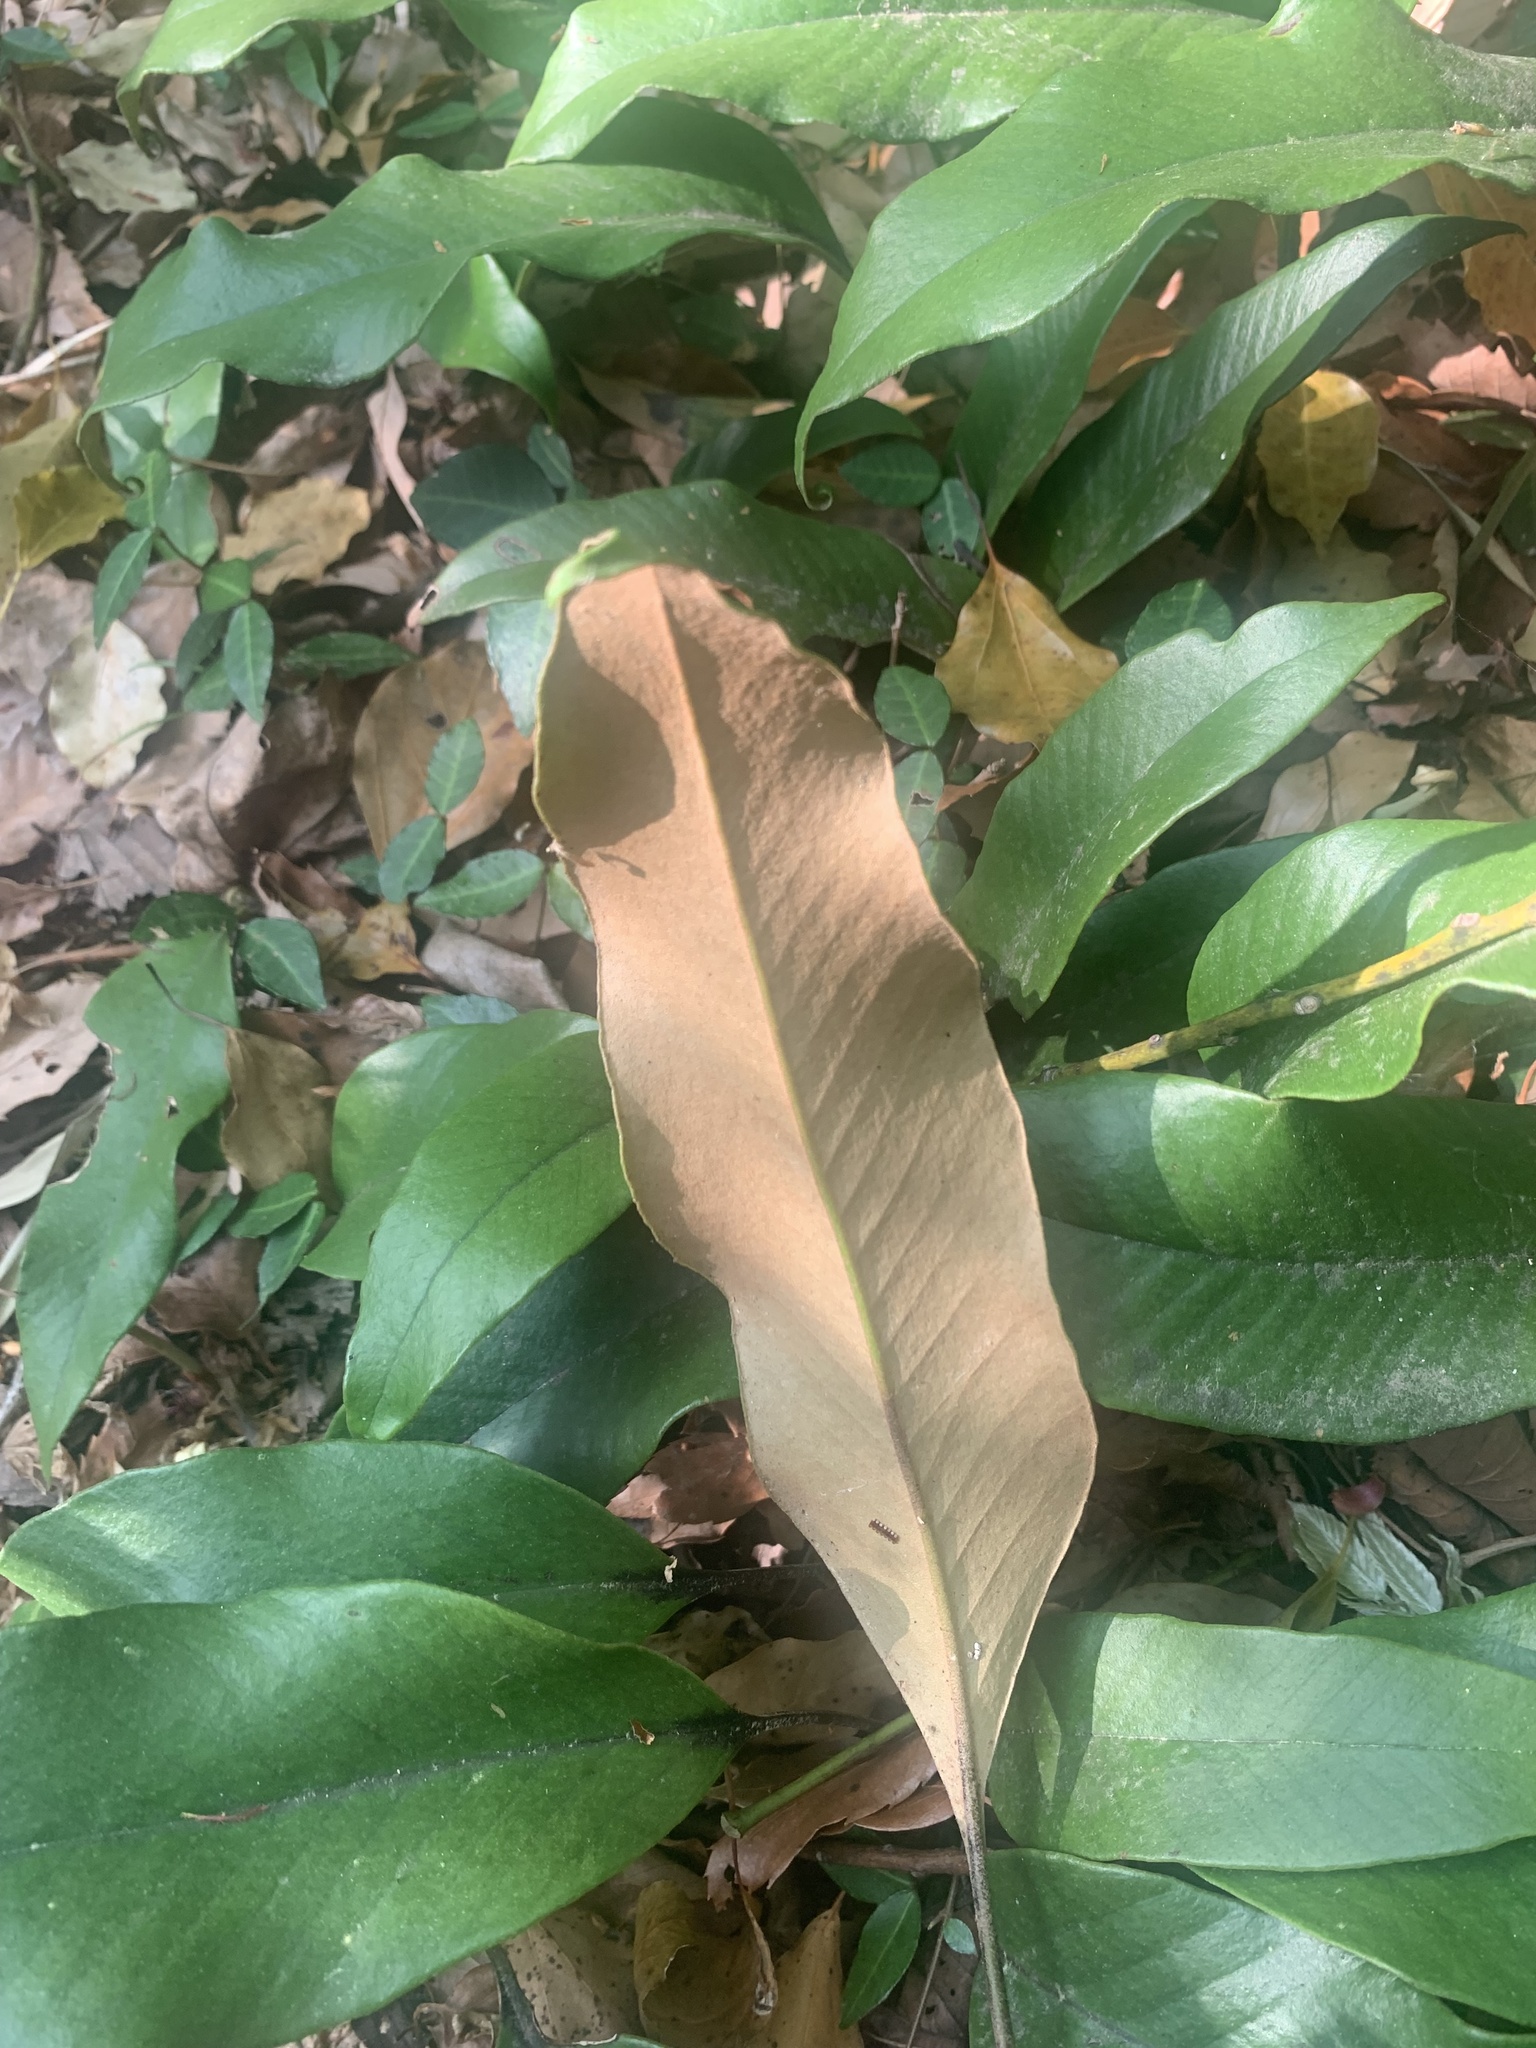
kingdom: Plantae
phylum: Tracheophyta
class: Polypodiopsida
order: Polypodiales
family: Polypodiaceae
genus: Pyrrosia
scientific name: Pyrrosia lingua
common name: Felt fern
